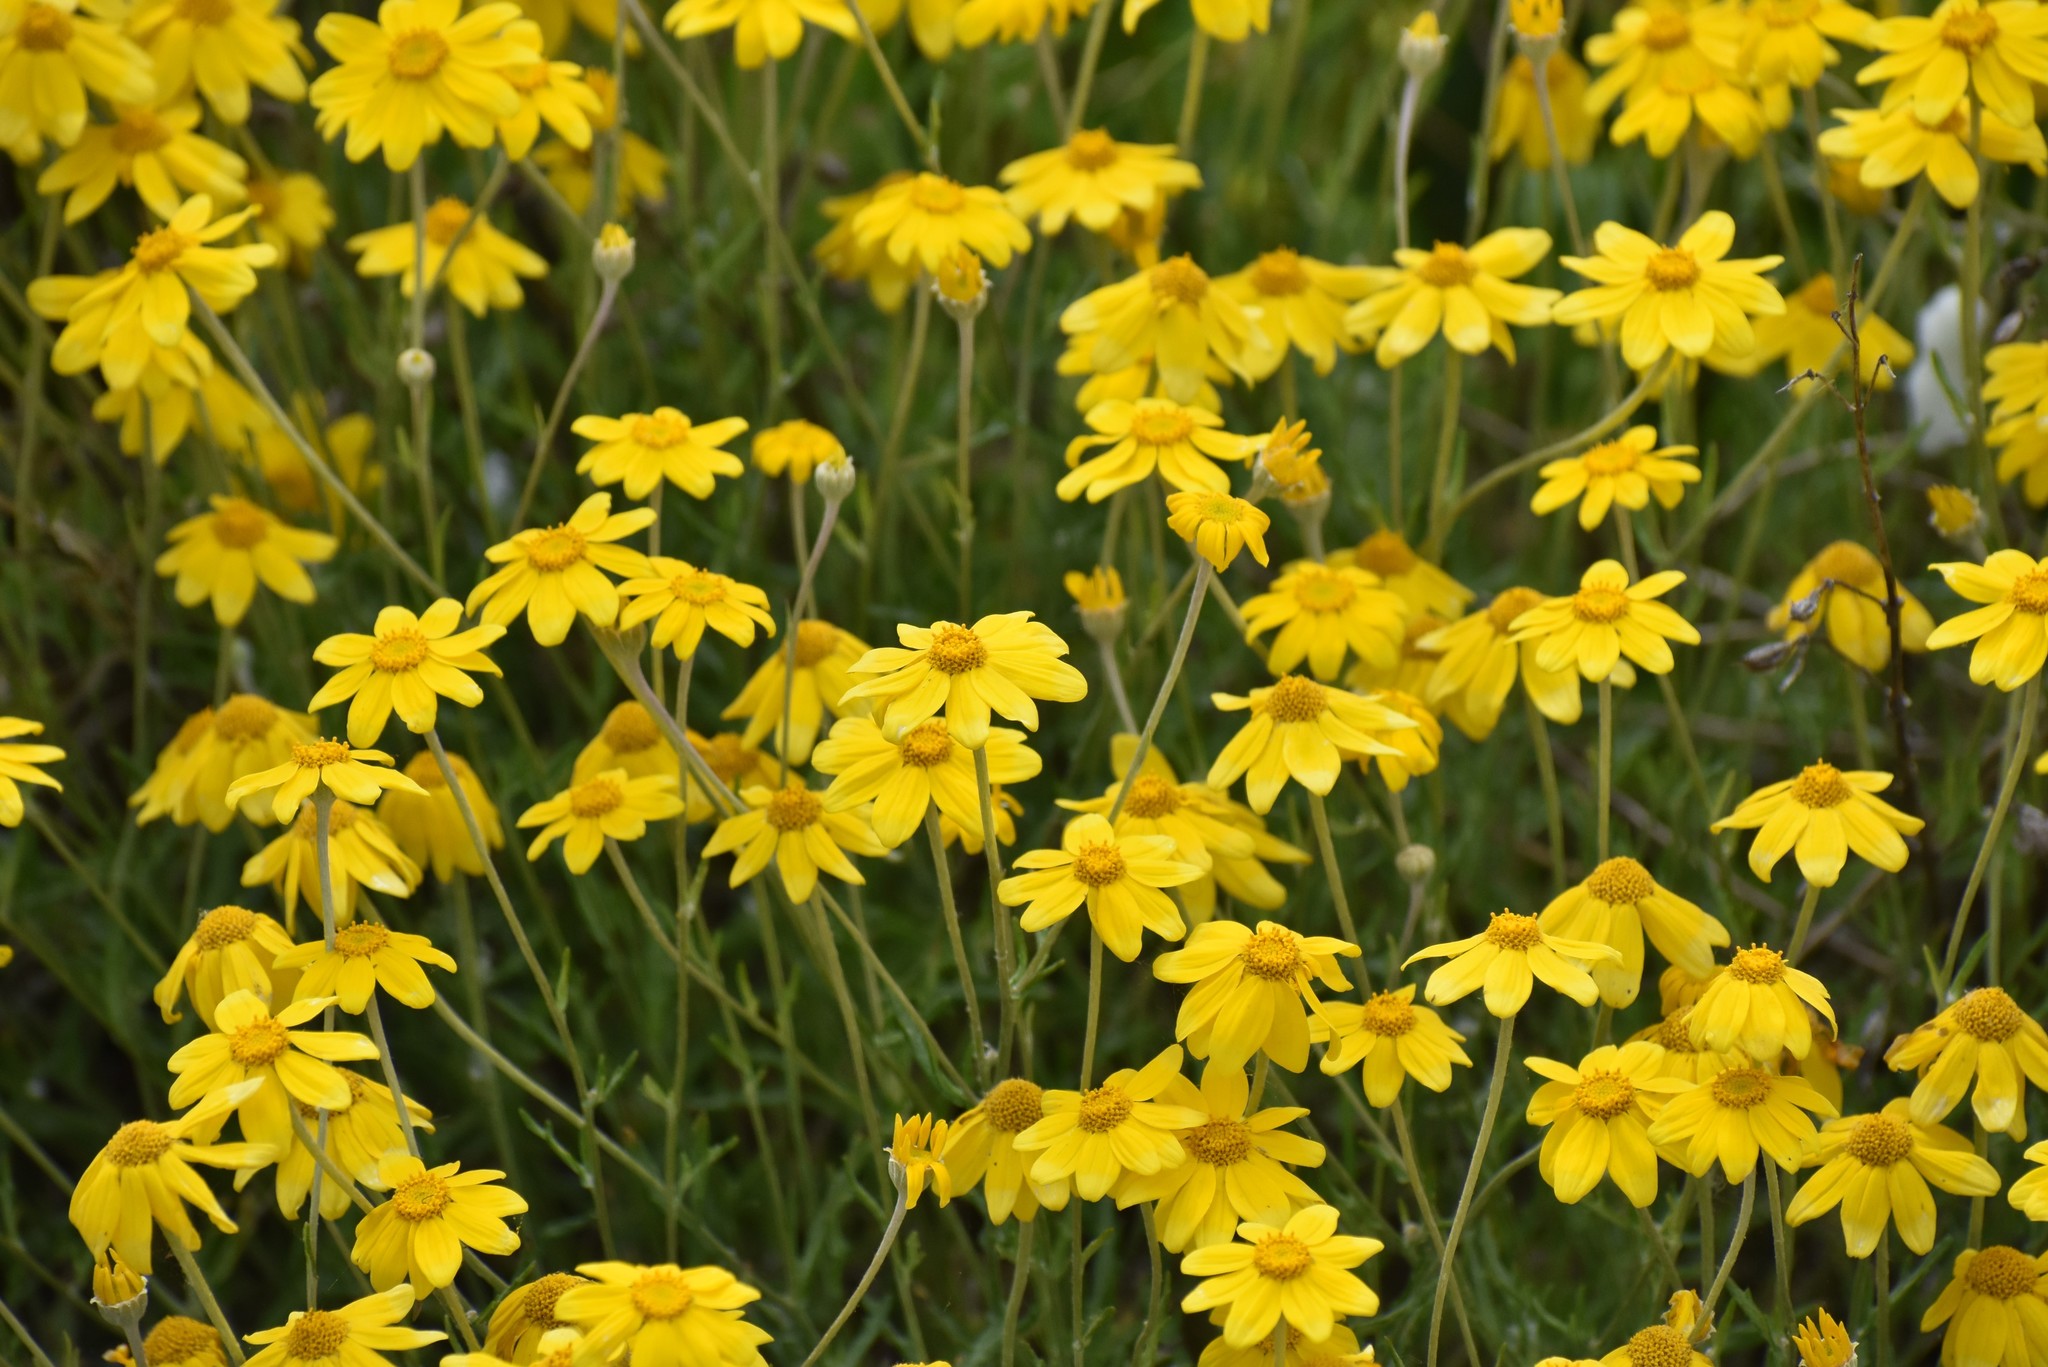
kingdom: Plantae
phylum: Tracheophyta
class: Magnoliopsida
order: Asterales
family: Asteraceae
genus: Eriophyllum
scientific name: Eriophyllum lanatum
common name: Common woolly-sunflower
